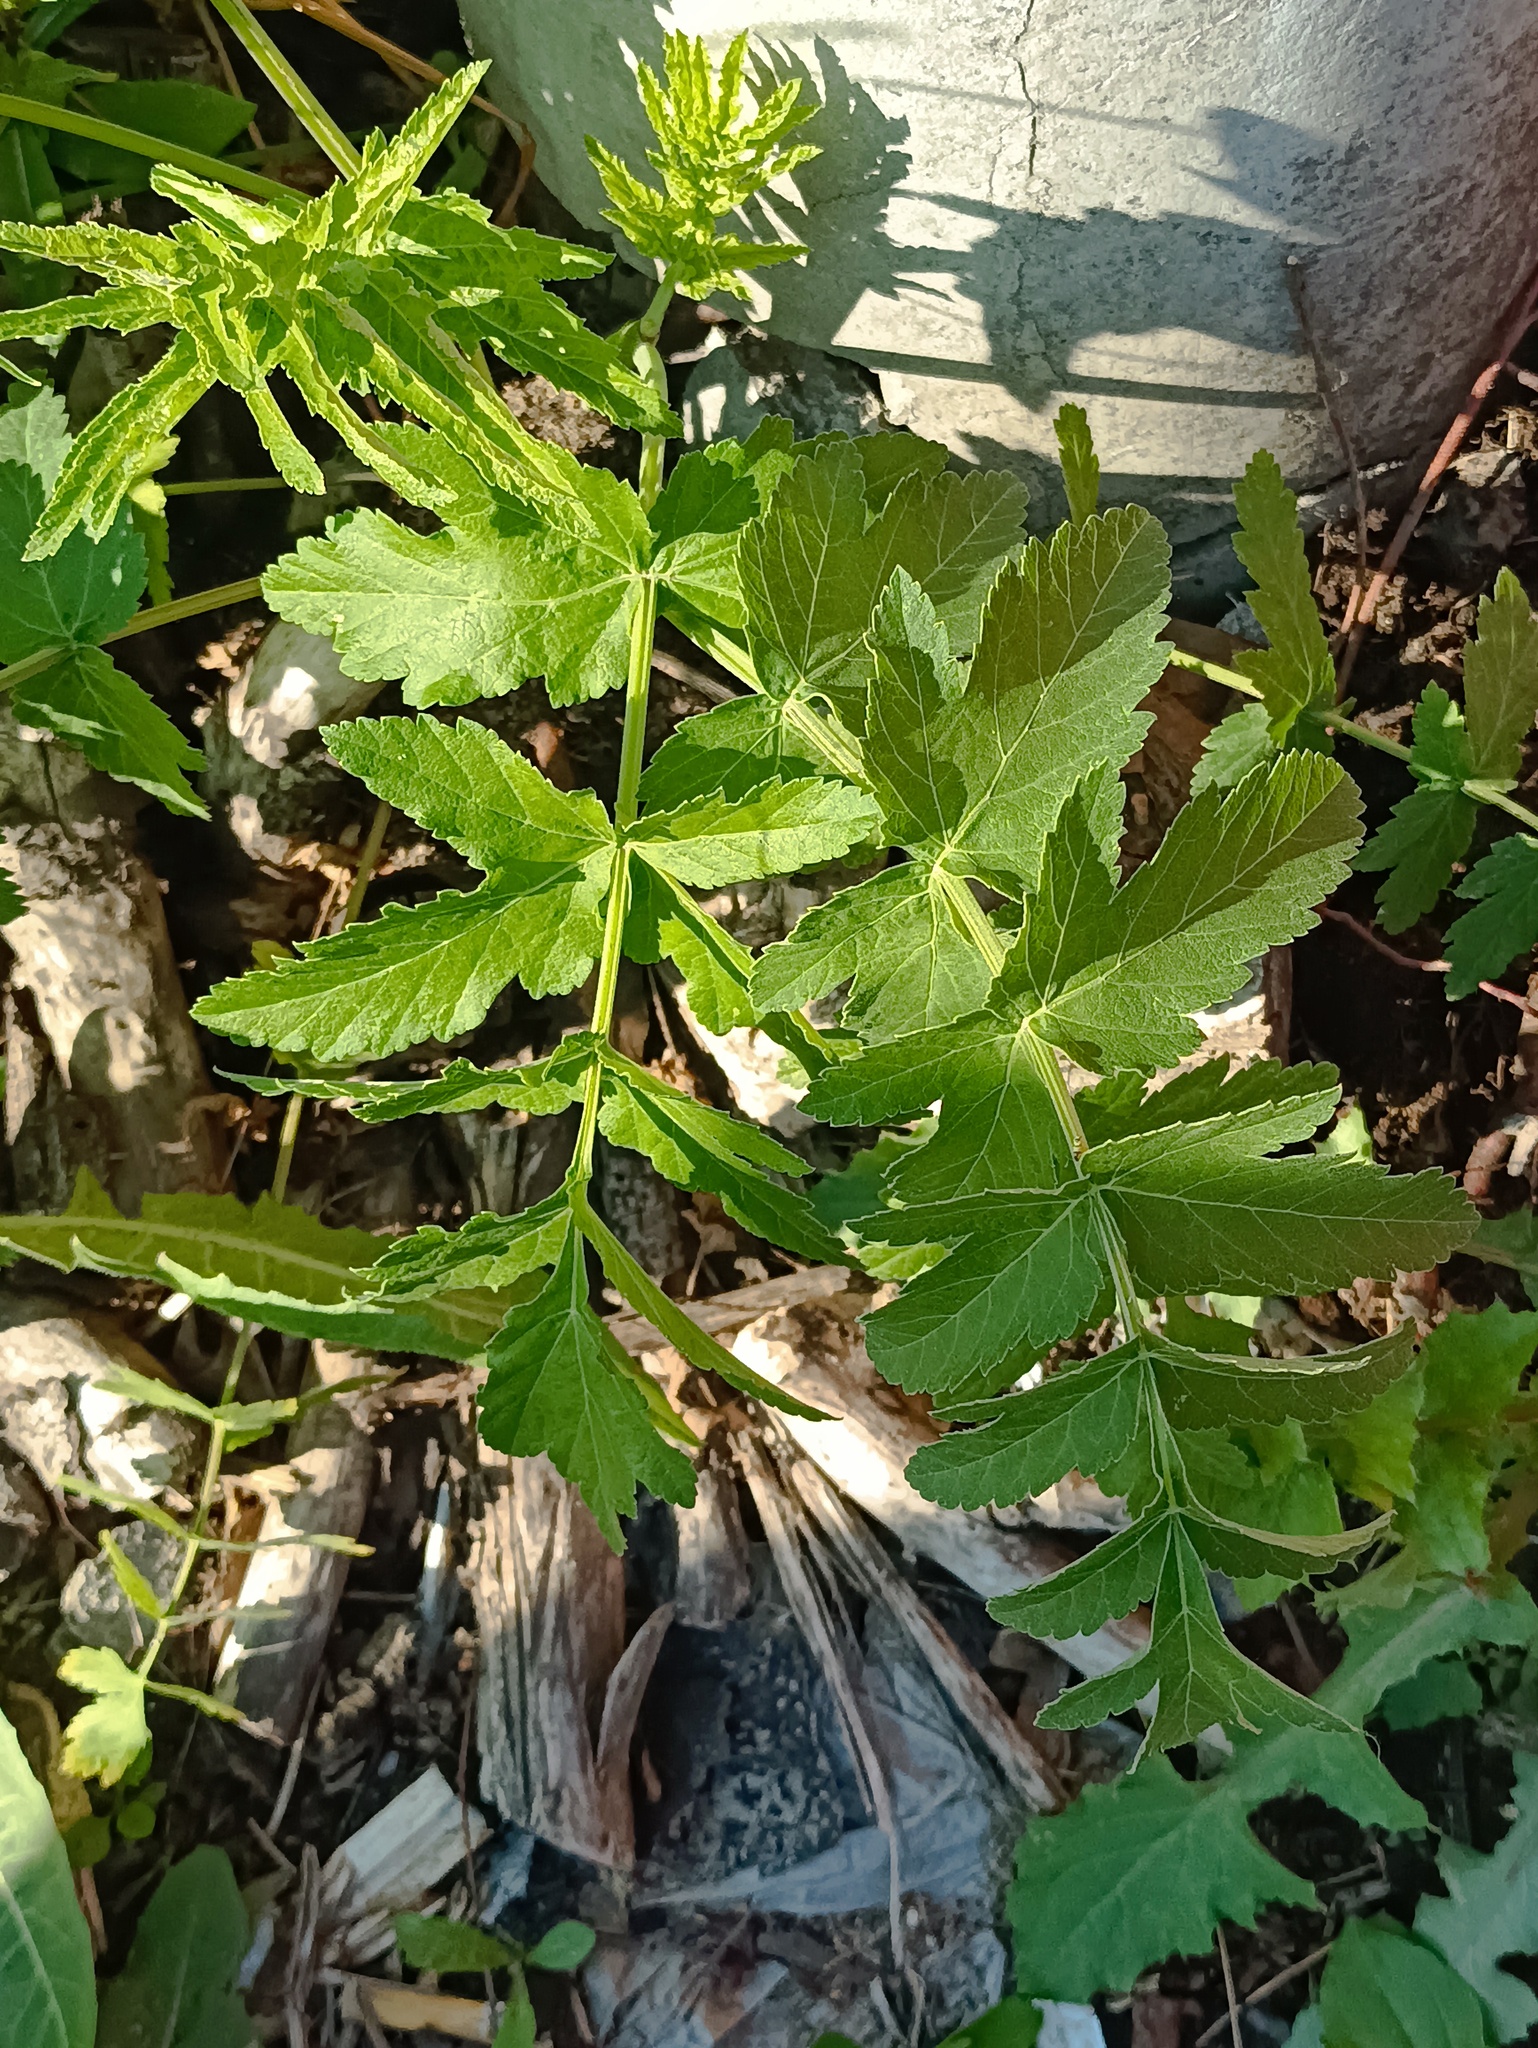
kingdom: Plantae
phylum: Tracheophyta
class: Magnoliopsida
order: Apiales
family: Apiaceae
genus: Pastinaca
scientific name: Pastinaca sativa
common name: Wild parsnip
